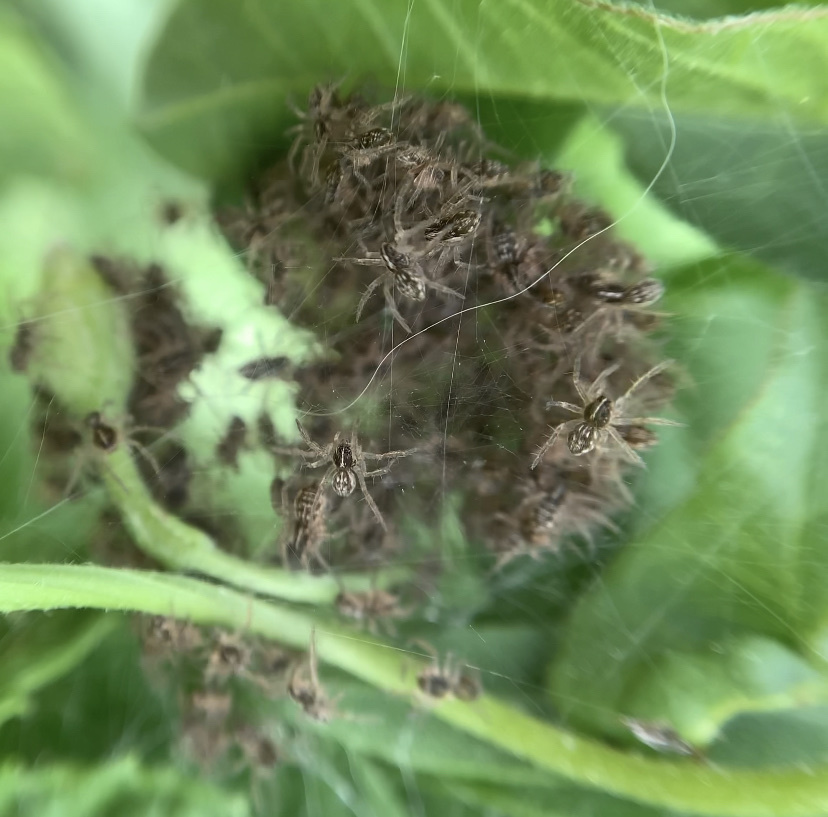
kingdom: Animalia
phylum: Arthropoda
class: Arachnida
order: Araneae
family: Pisauridae
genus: Pisaura
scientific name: Pisaura mirabilis
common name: Tent spider
